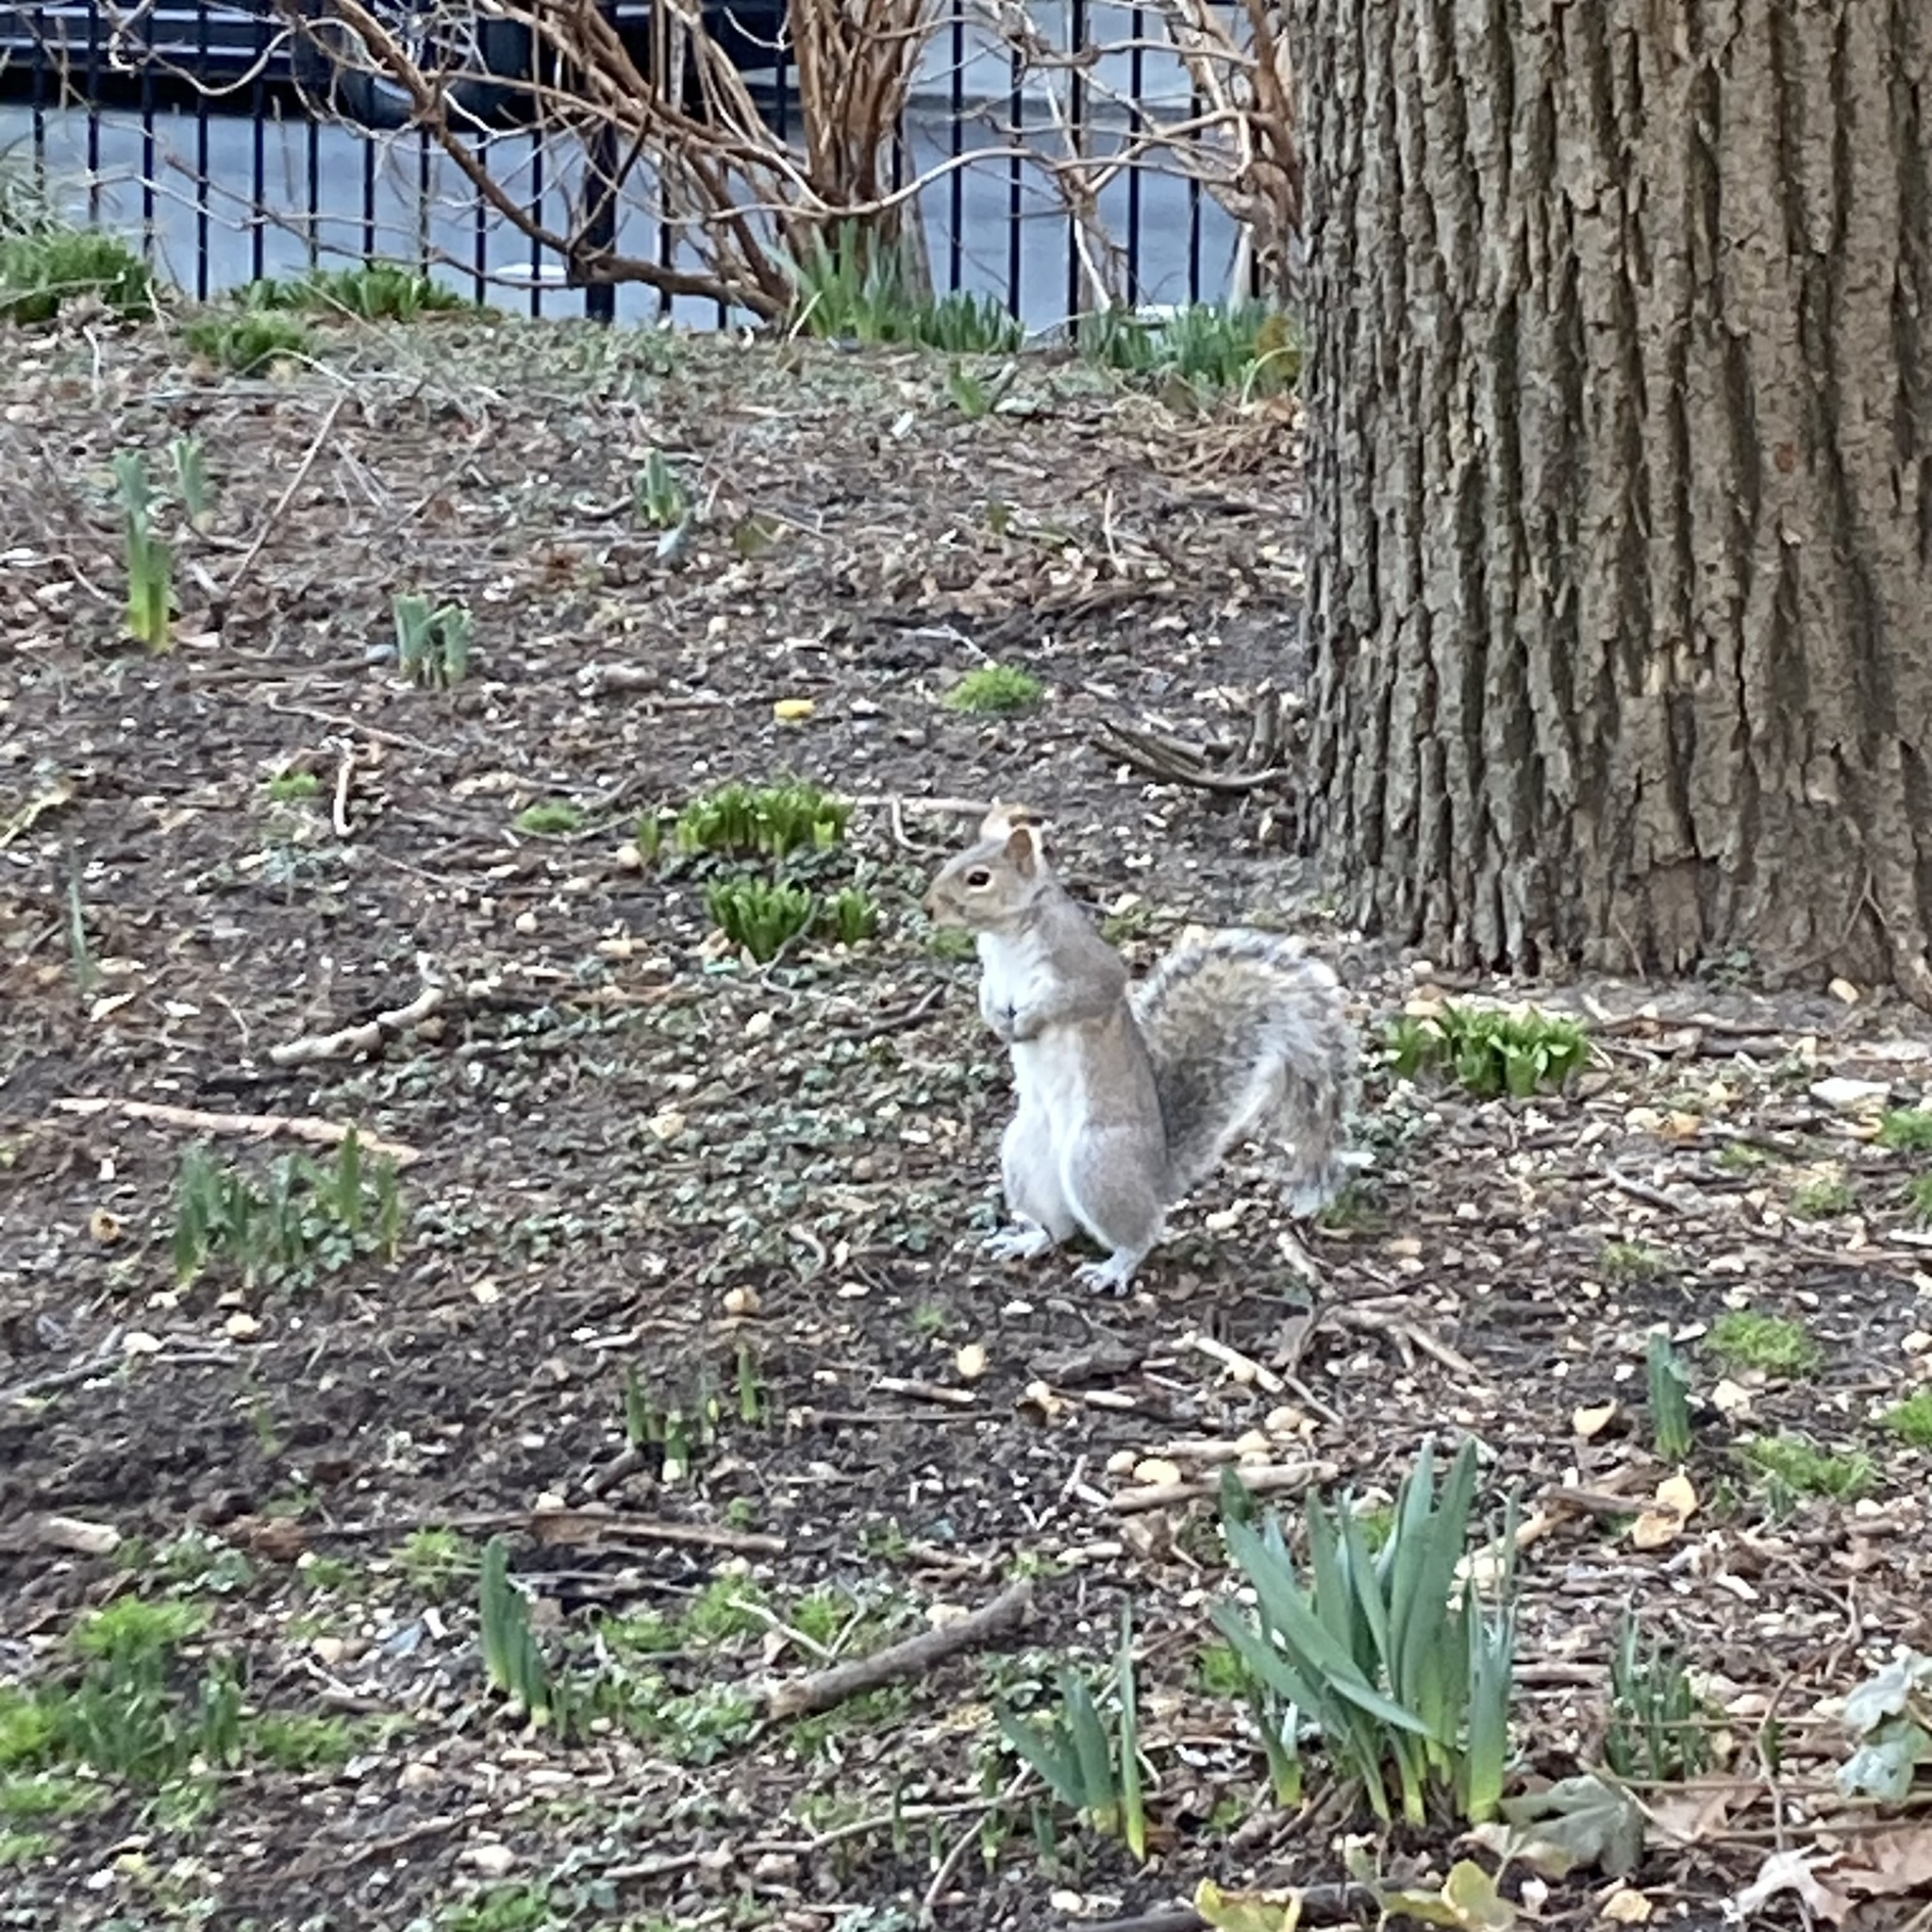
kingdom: Animalia
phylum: Chordata
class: Mammalia
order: Rodentia
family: Sciuridae
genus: Sciurus
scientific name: Sciurus carolinensis
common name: Eastern gray squirrel
